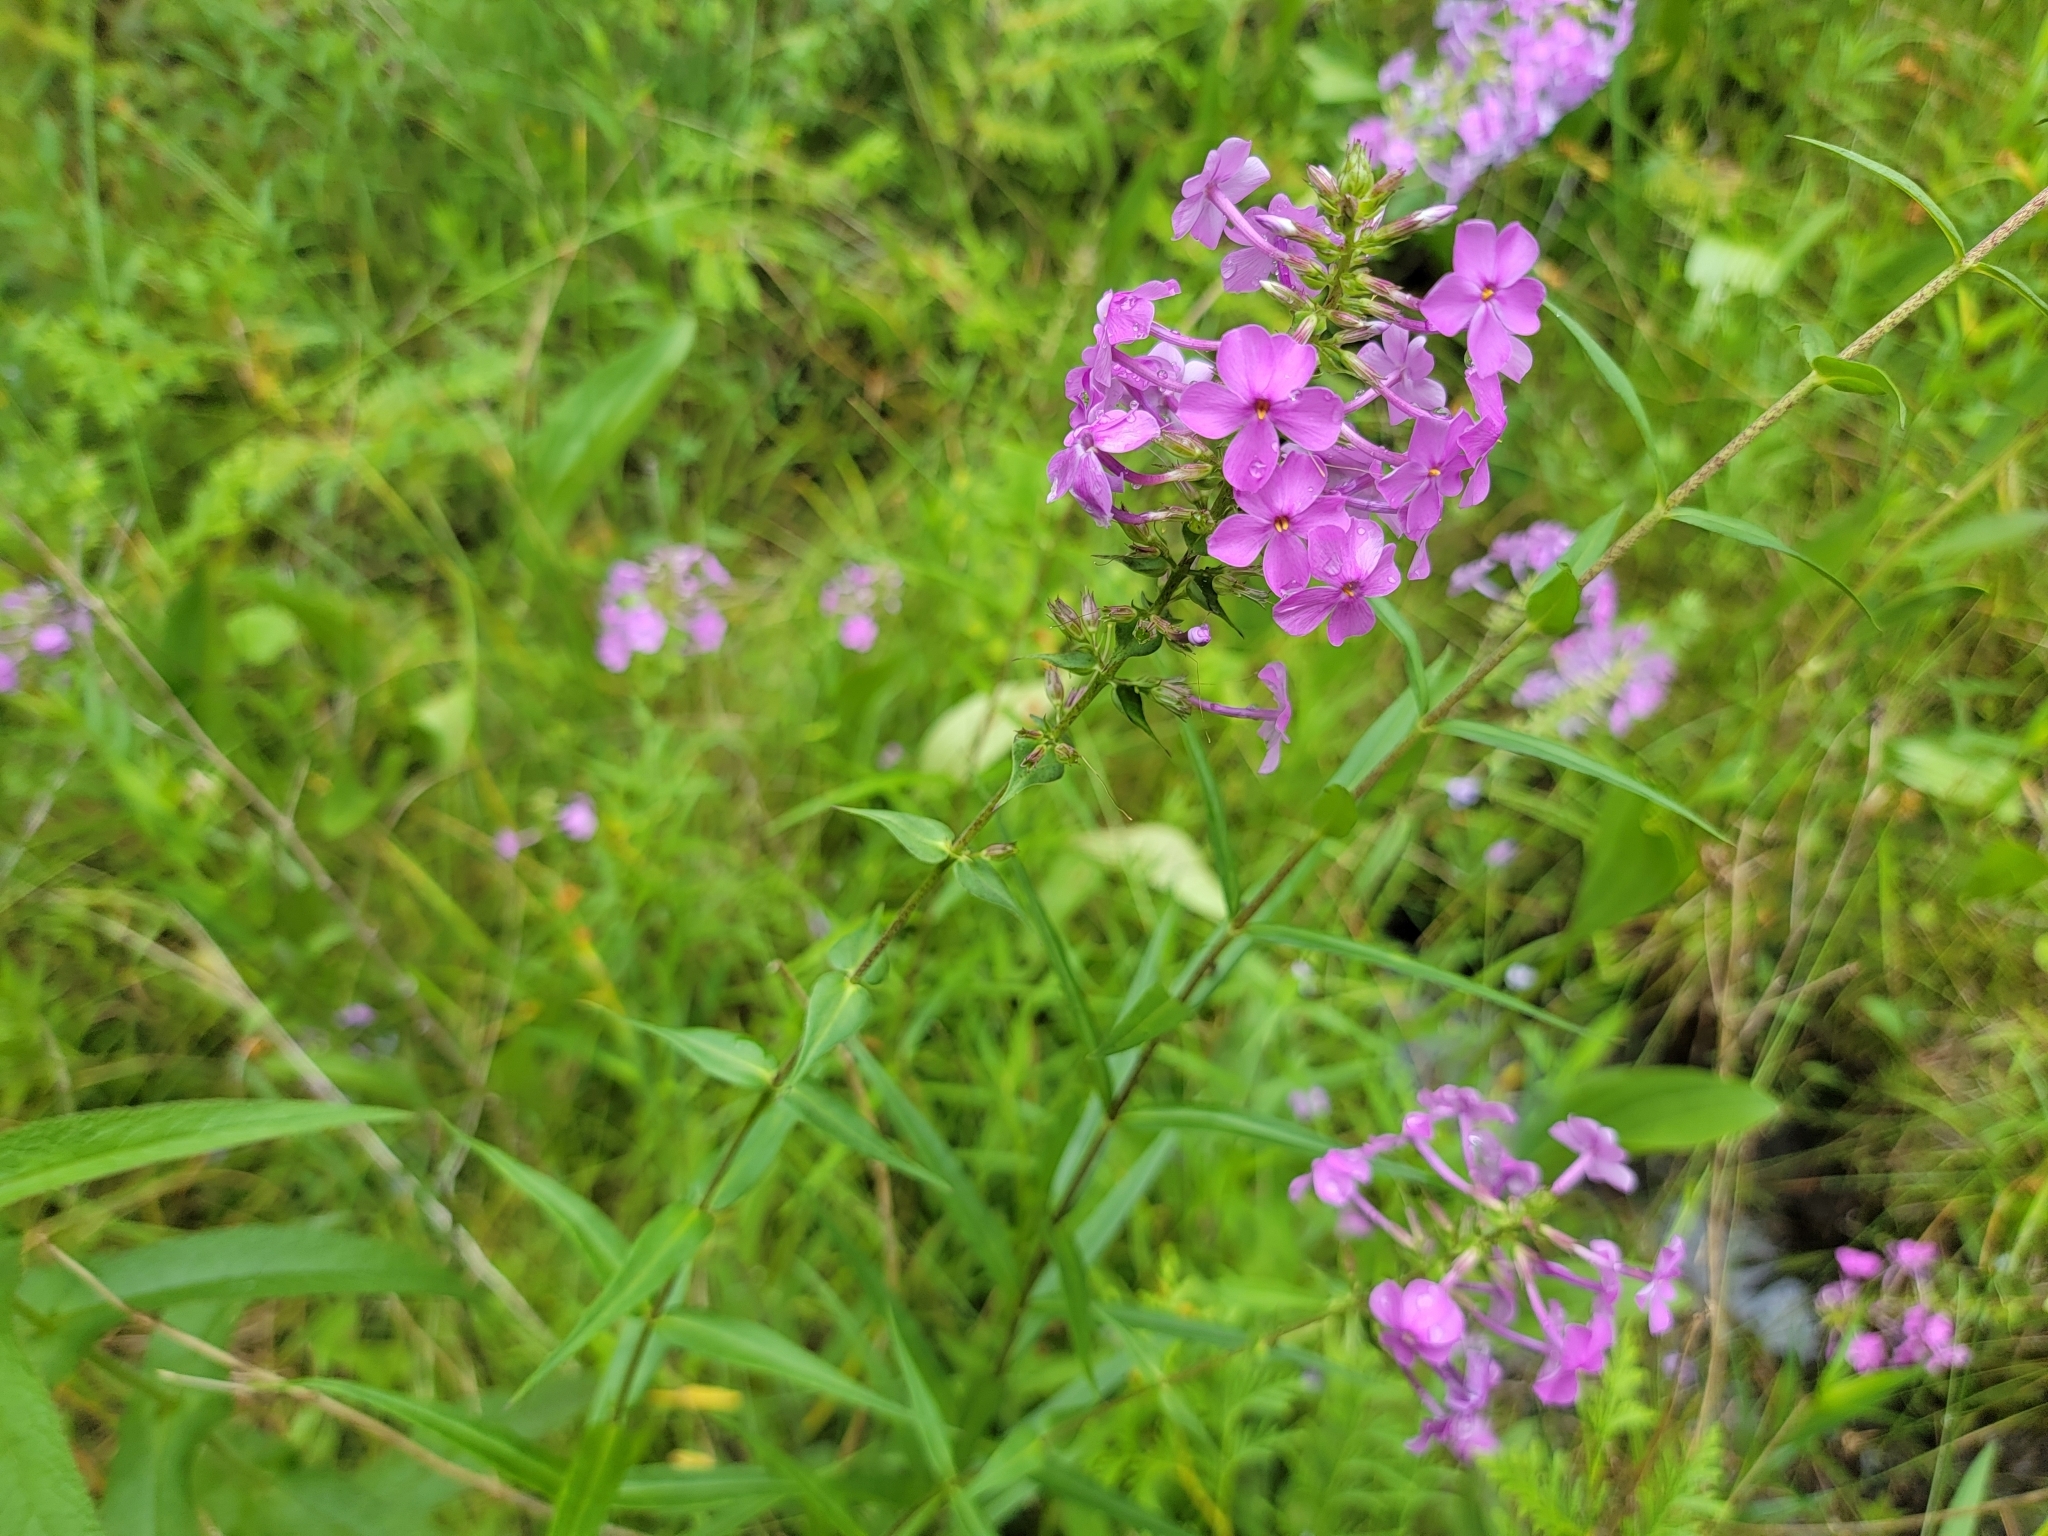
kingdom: Plantae
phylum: Tracheophyta
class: Magnoliopsida
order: Ericales
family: Polemoniaceae
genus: Phlox
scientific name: Phlox maculata
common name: Meadow phlox
